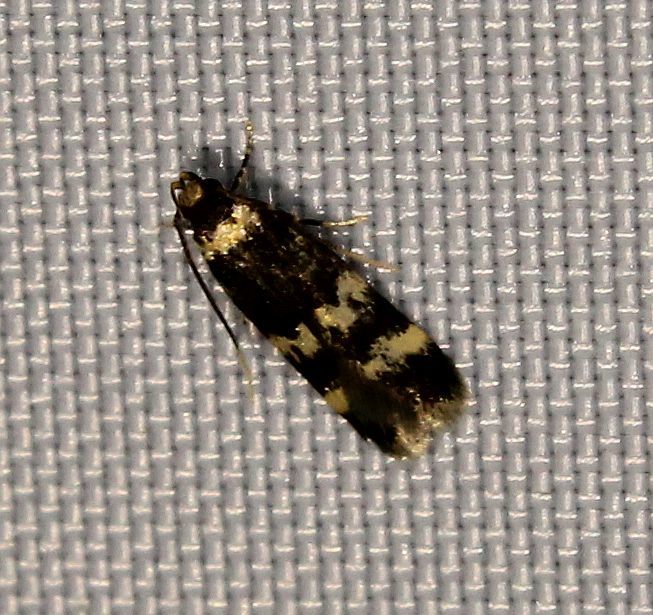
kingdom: Animalia
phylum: Arthropoda
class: Insecta
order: Lepidoptera
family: Autostichidae
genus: Oegoconia
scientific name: Oegoconia quadripuncta
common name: Four-spotted obscure
